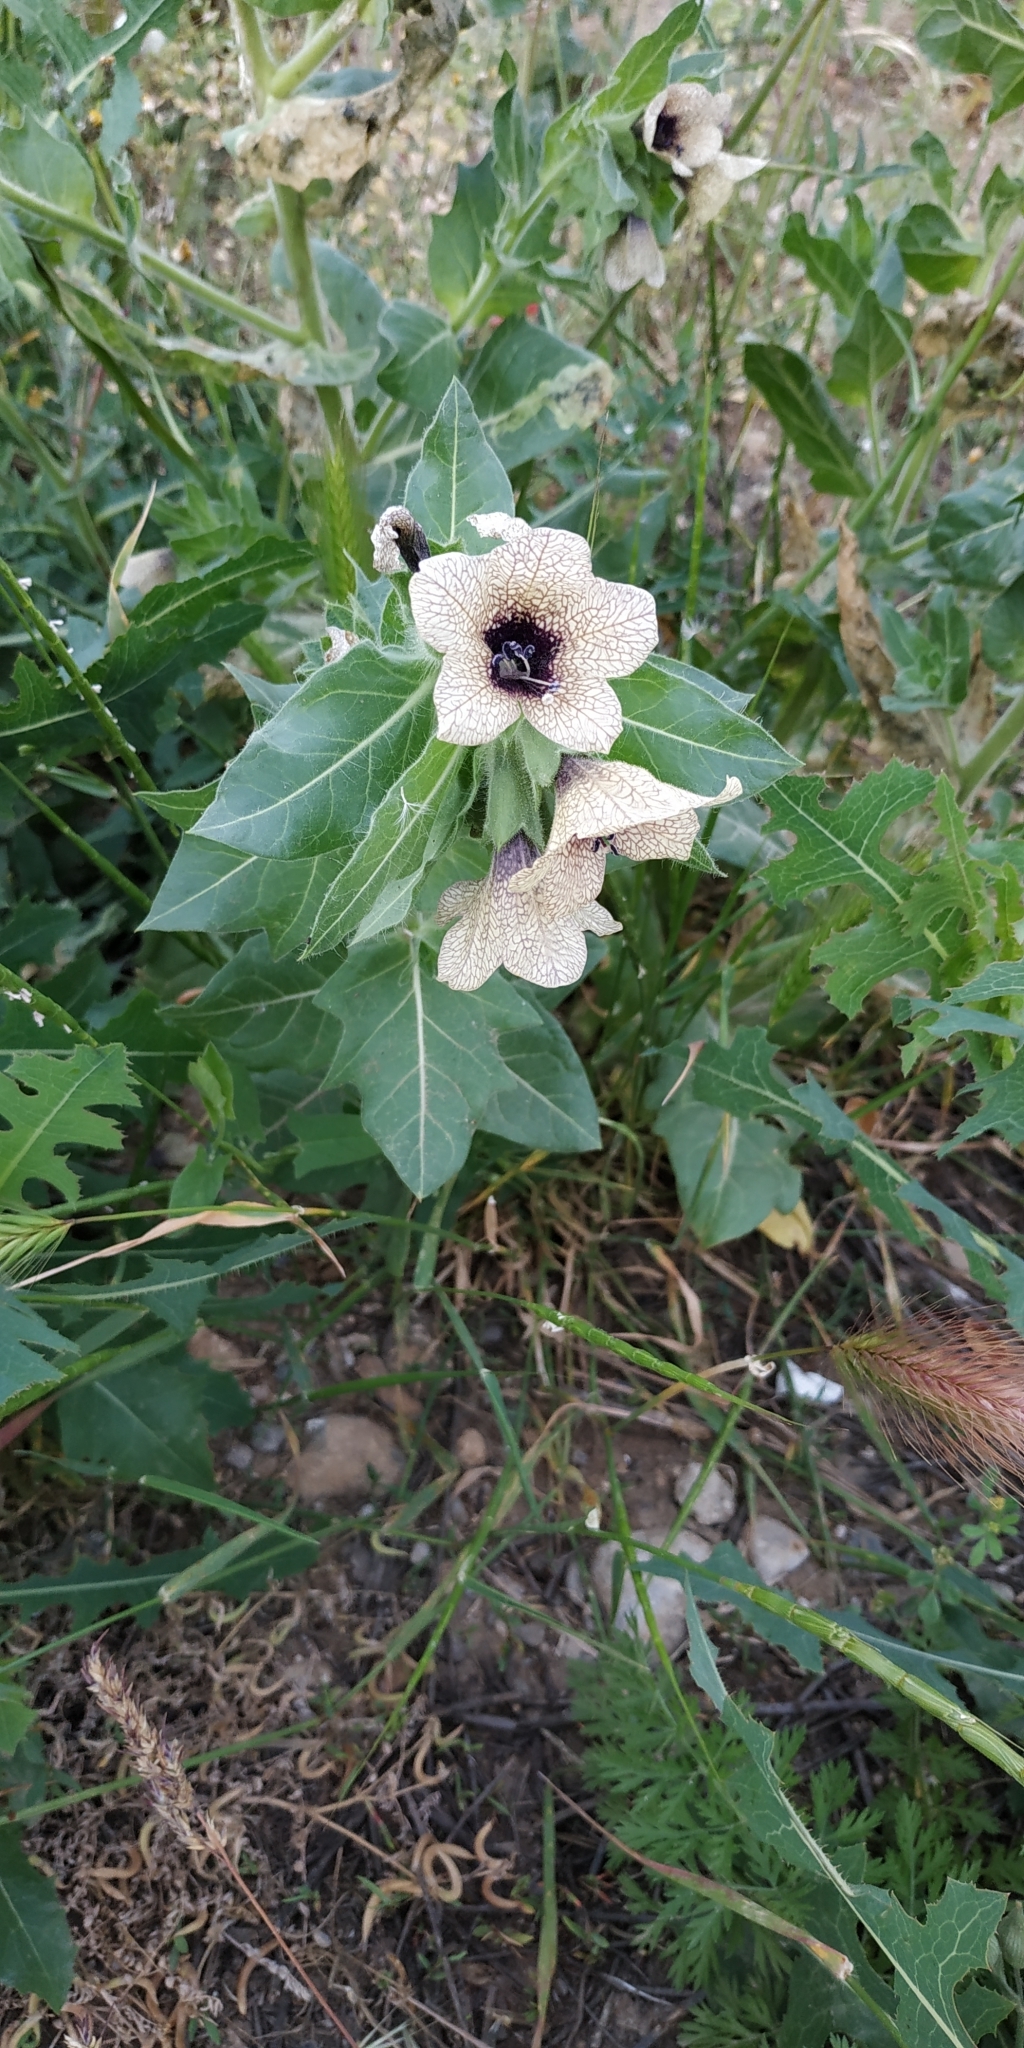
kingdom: Plantae
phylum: Tracheophyta
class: Magnoliopsida
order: Solanales
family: Solanaceae
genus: Hyoscyamus
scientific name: Hyoscyamus niger
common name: Henbane
